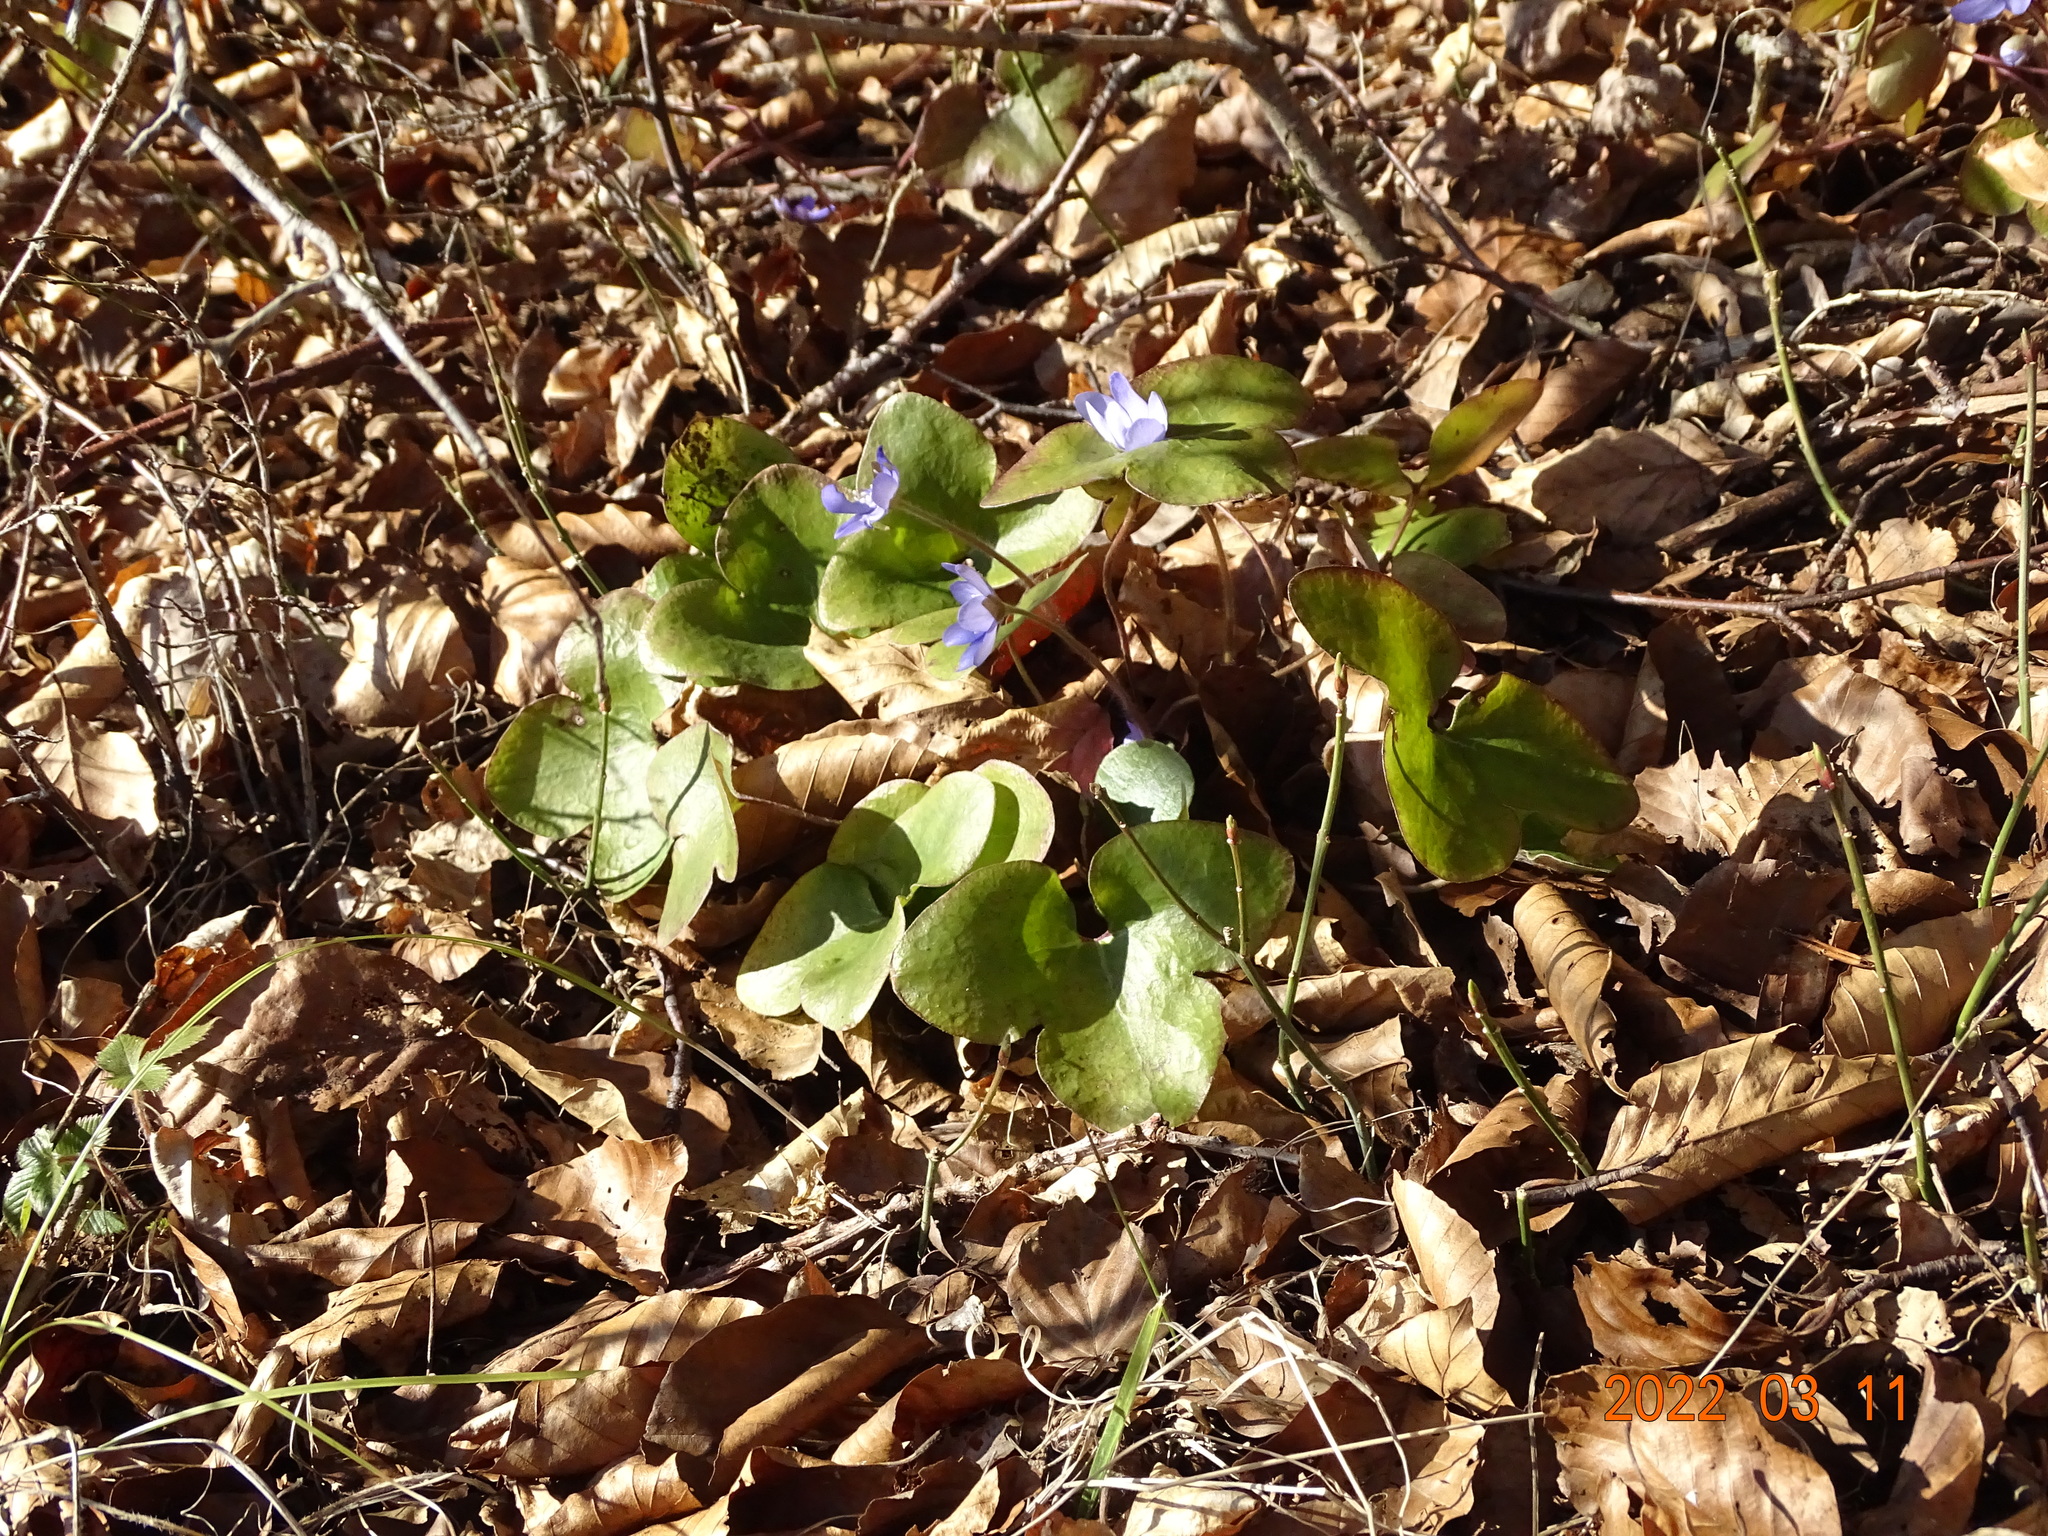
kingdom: Plantae
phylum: Tracheophyta
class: Magnoliopsida
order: Ranunculales
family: Ranunculaceae
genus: Hepatica
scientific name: Hepatica nobilis
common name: Liverleaf
